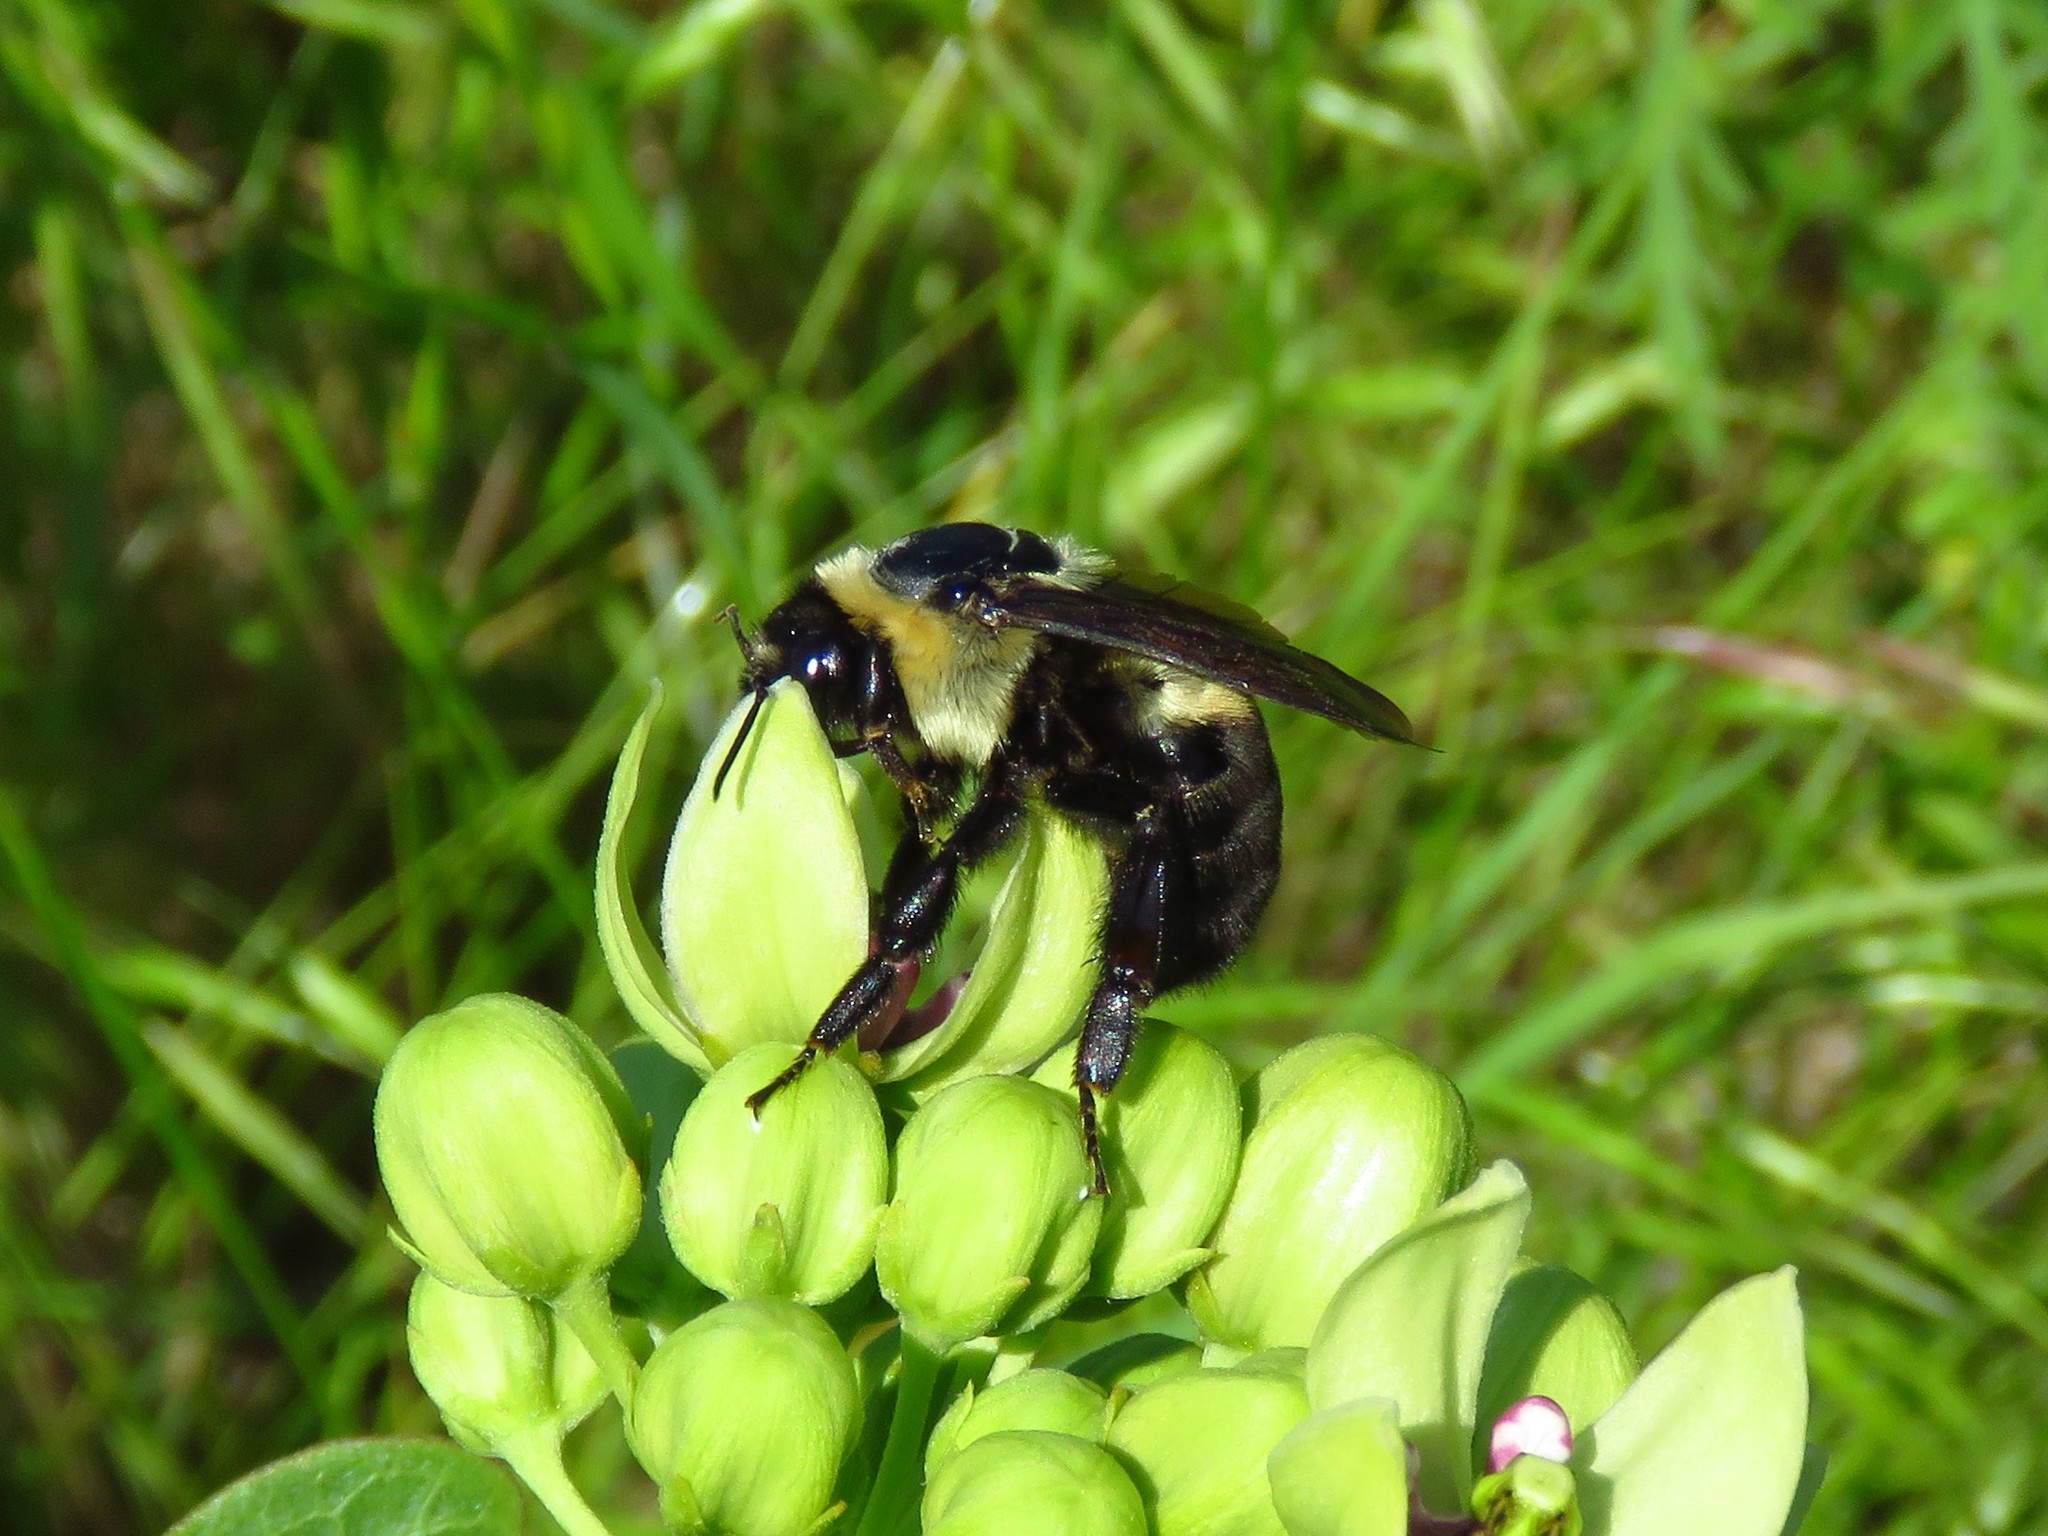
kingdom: Animalia
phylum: Arthropoda
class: Insecta
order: Hymenoptera
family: Apidae
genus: Xylocopa
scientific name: Xylocopa virginica
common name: Carpenter bee
